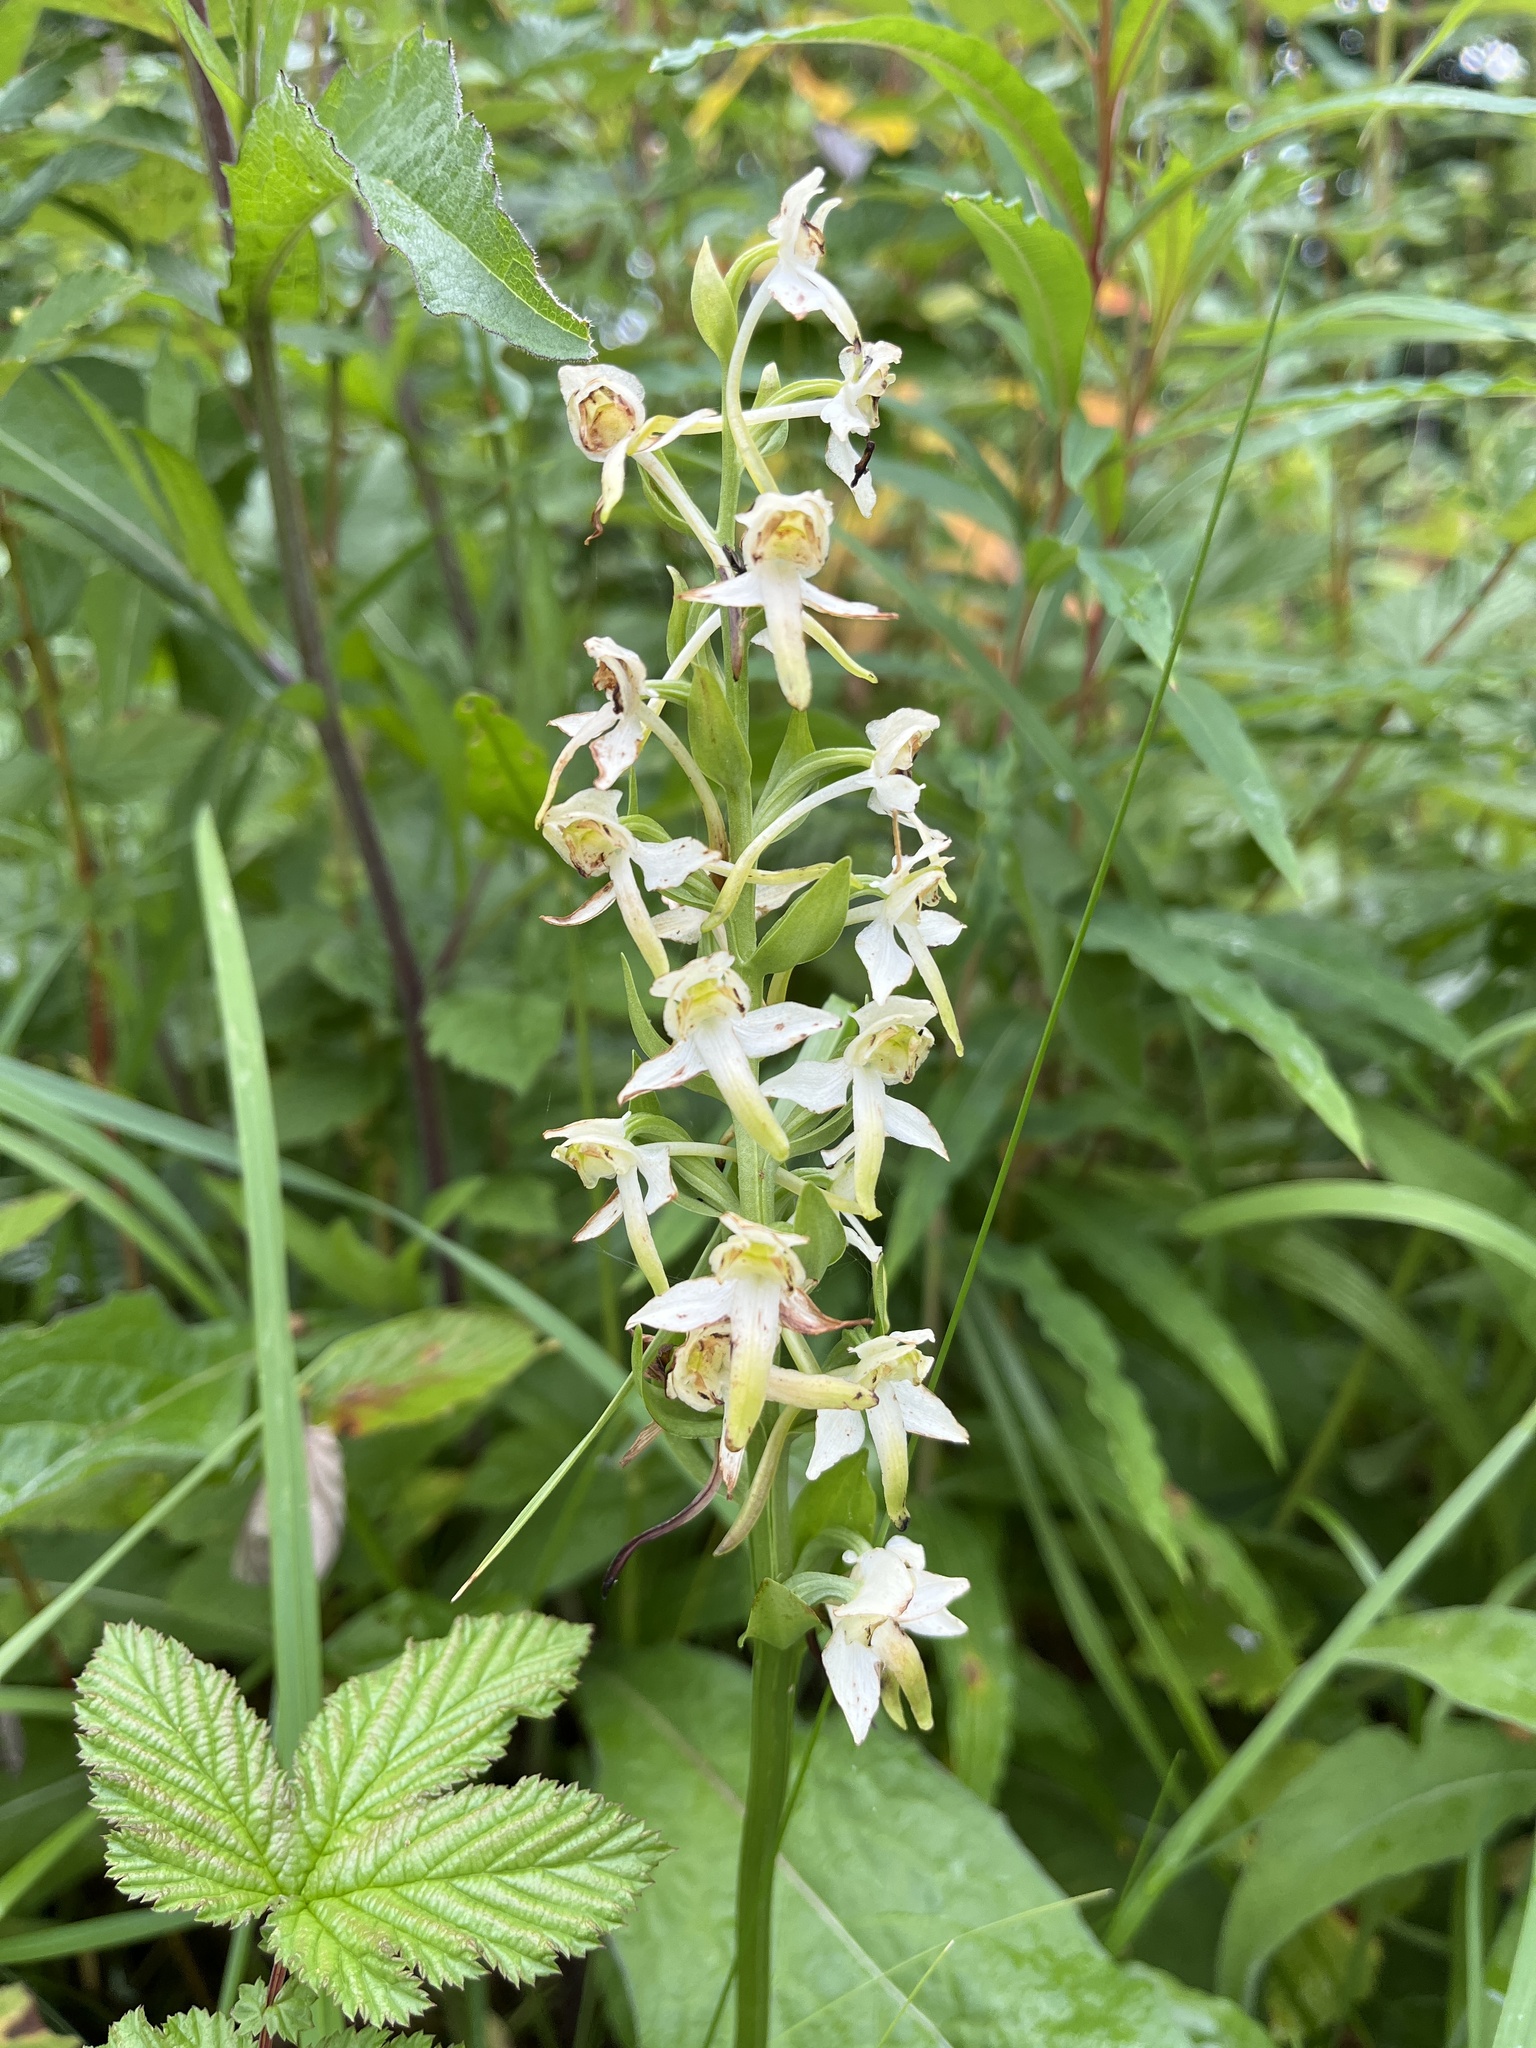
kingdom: Plantae
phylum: Tracheophyta
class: Liliopsida
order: Asparagales
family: Orchidaceae
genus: Platanthera
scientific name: Platanthera chlorantha
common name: Greater butterfly-orchid
